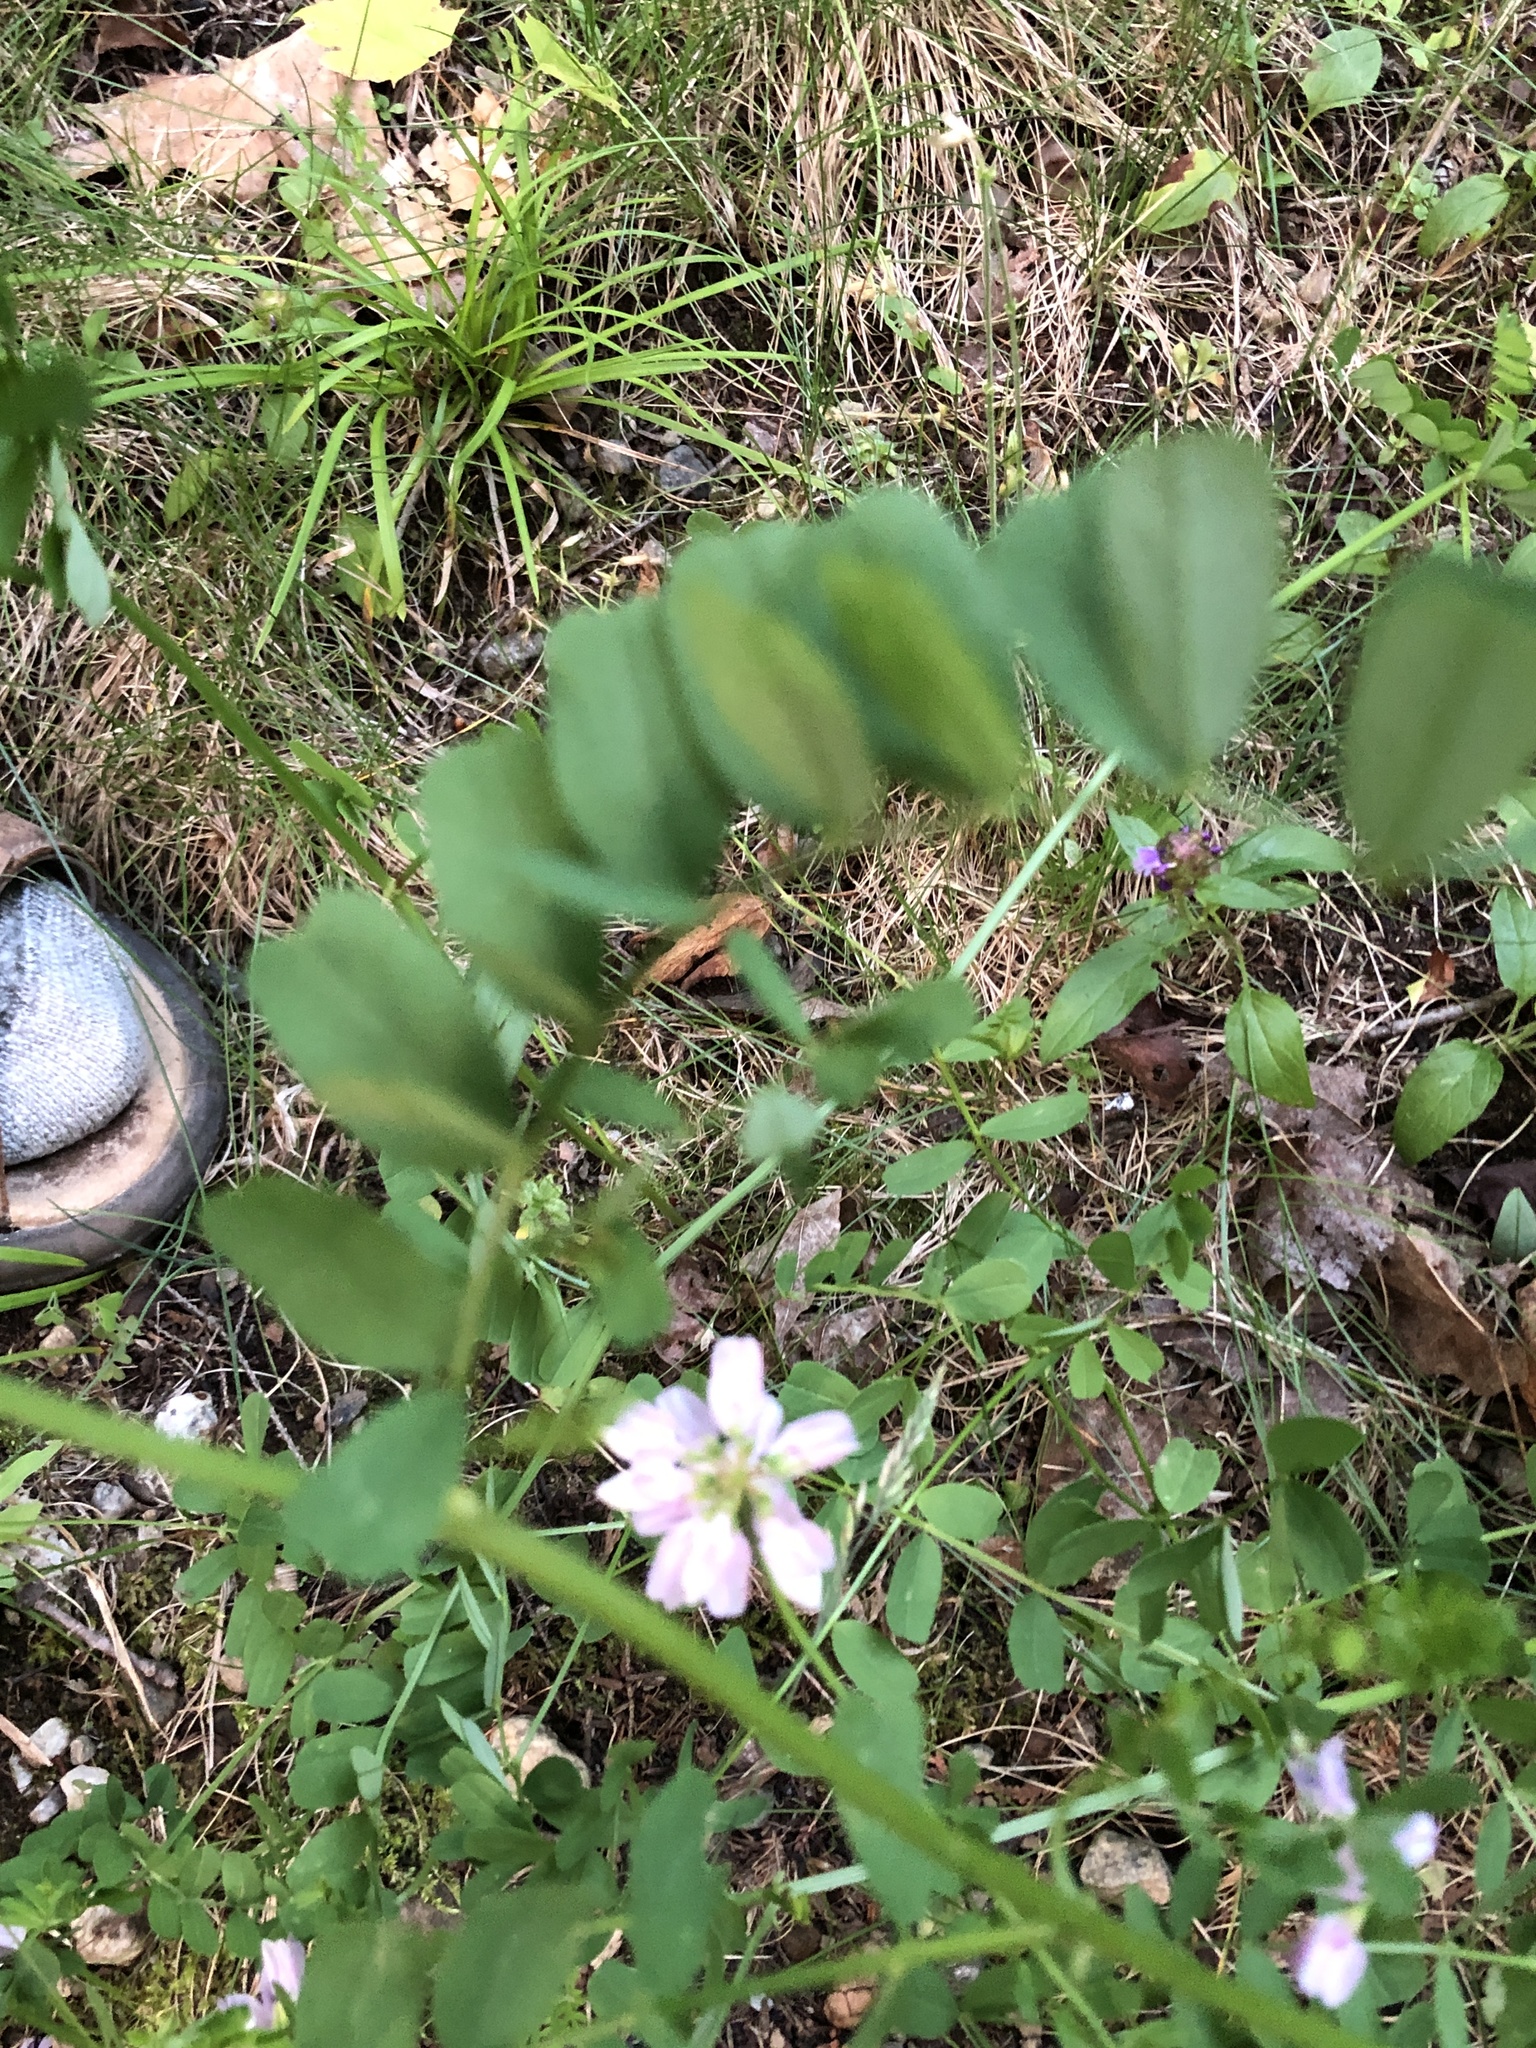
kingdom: Plantae
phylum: Tracheophyta
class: Magnoliopsida
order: Fabales
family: Fabaceae
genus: Coronilla
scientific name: Coronilla varia
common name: Crownvetch
